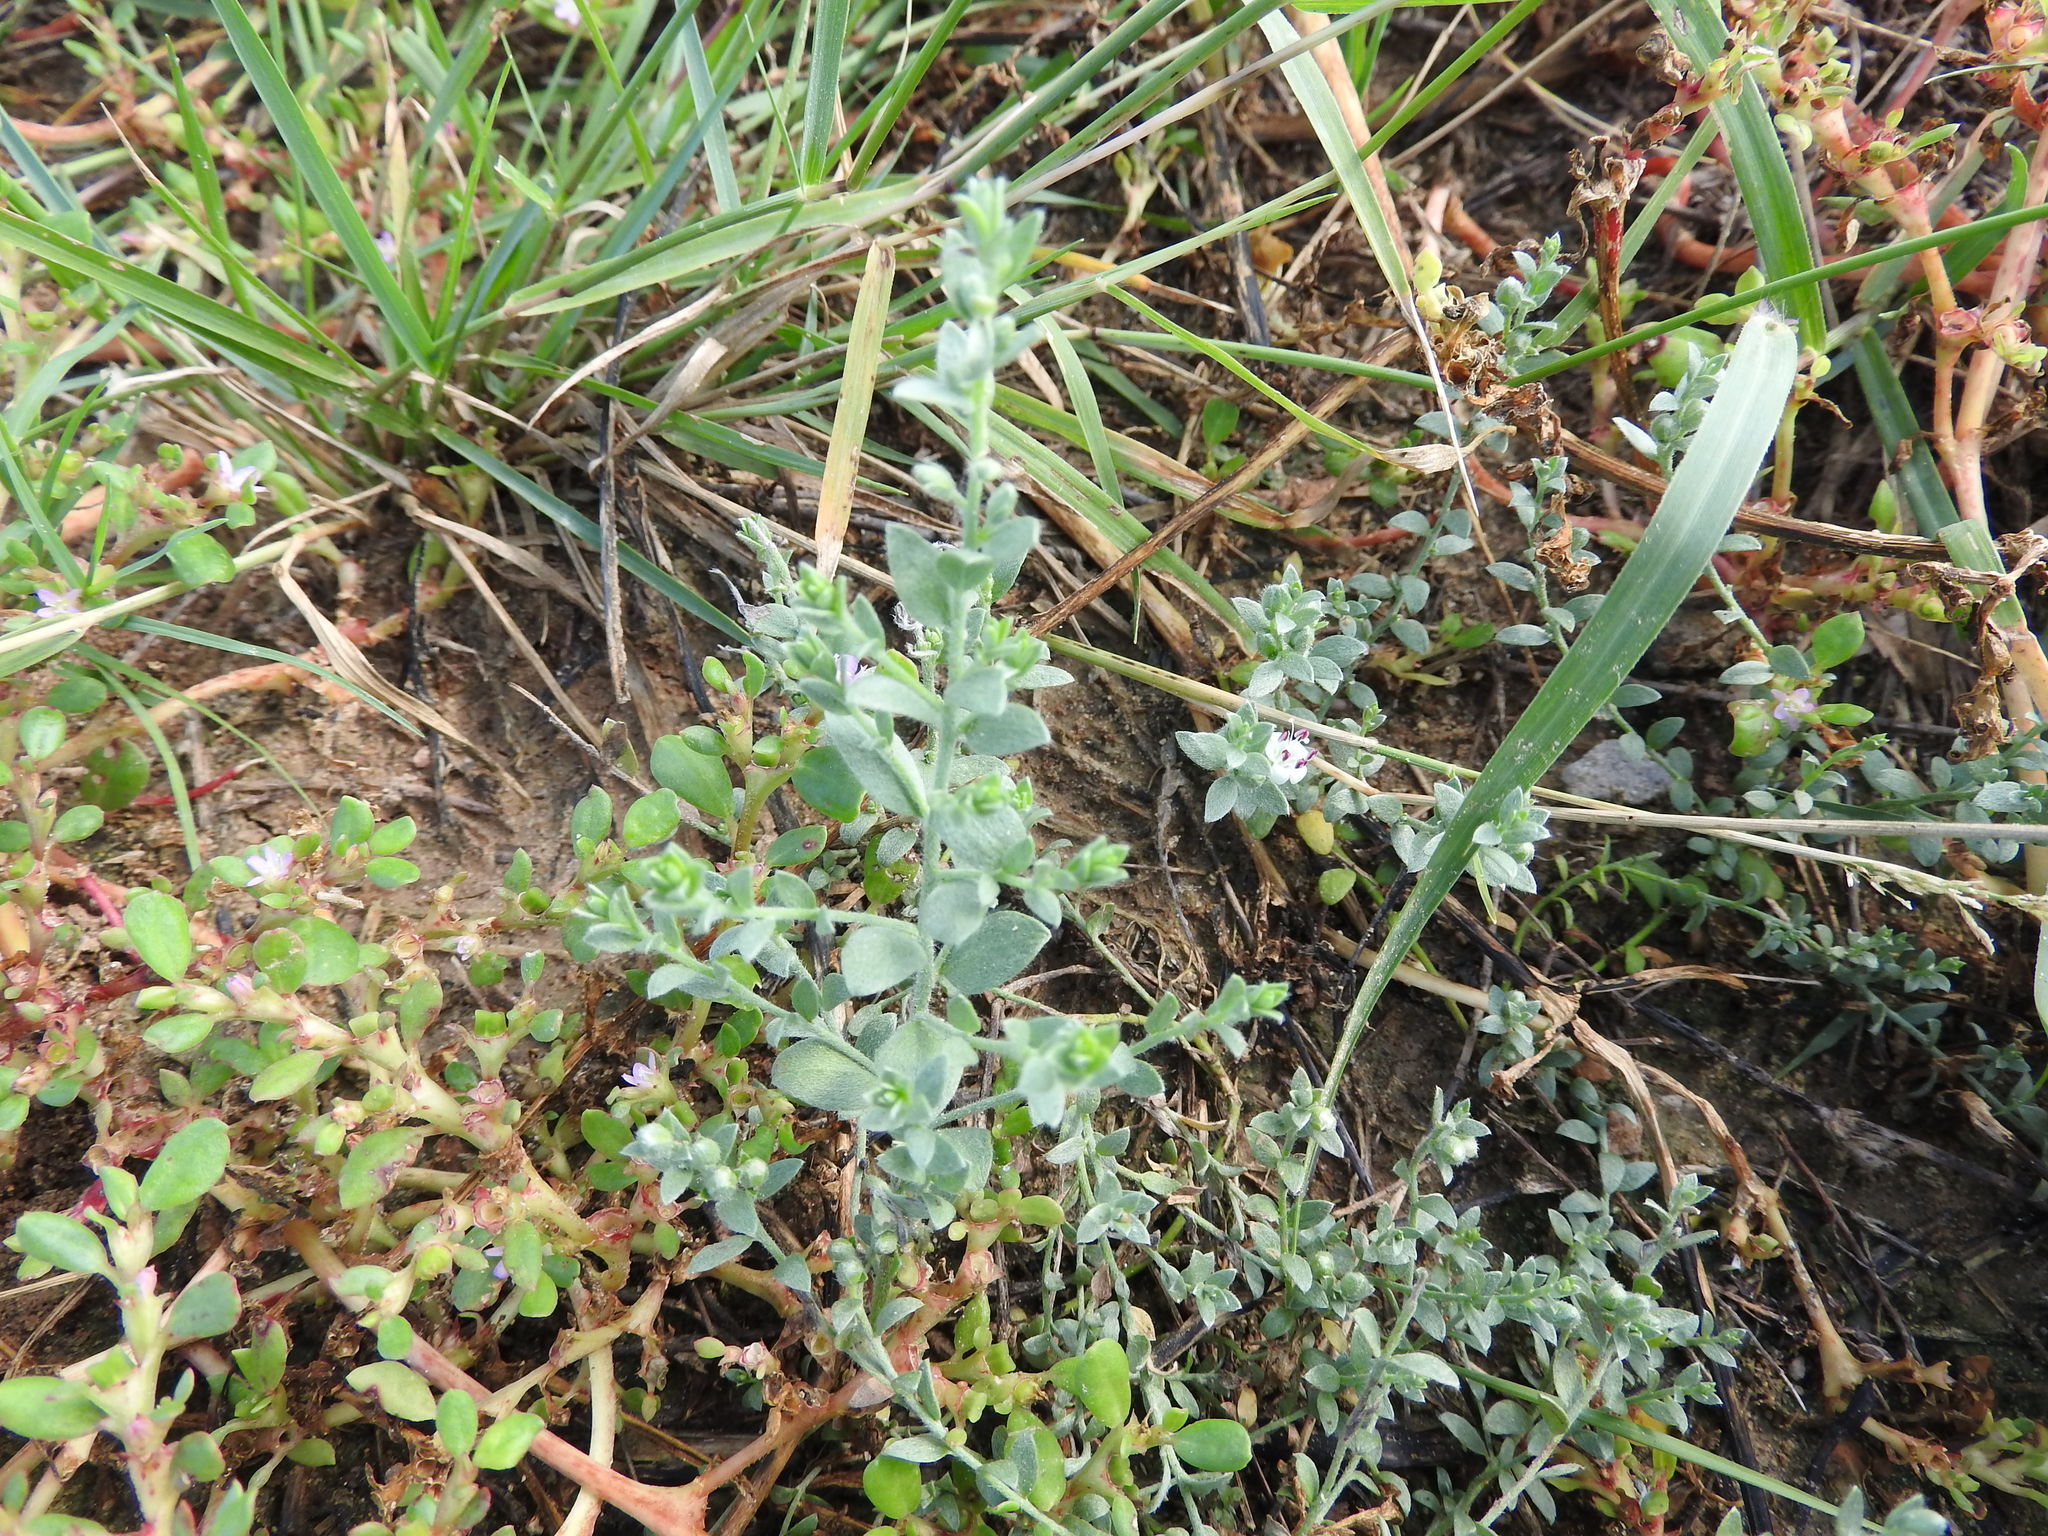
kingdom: Plantae
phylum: Tracheophyta
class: Magnoliopsida
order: Solanales
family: Convolvulaceae
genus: Cressa
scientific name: Cressa truxillensis
